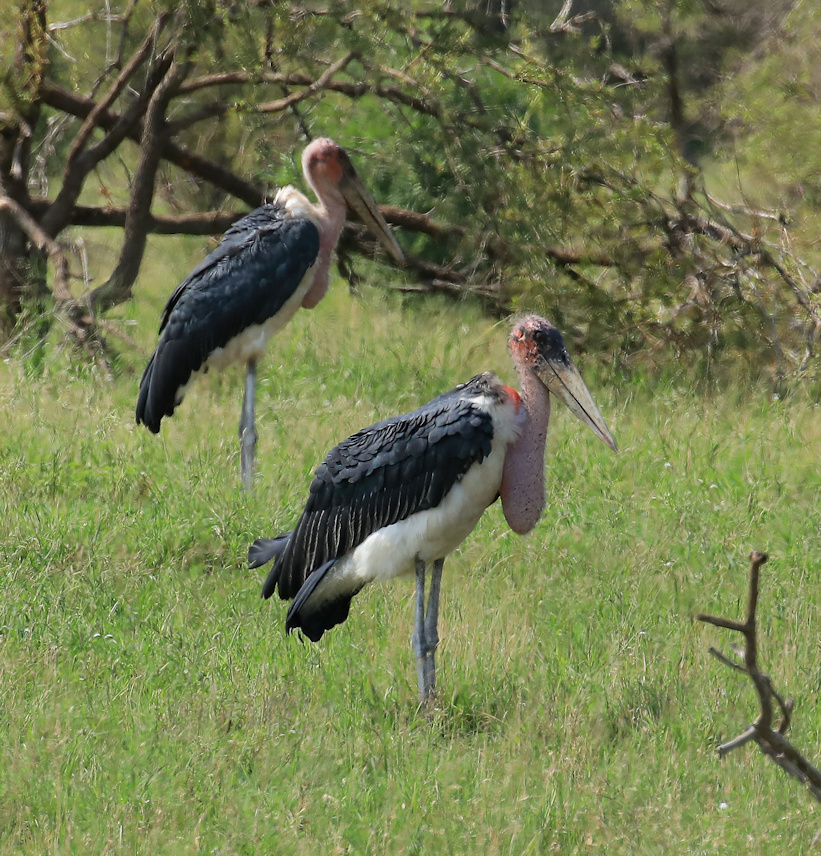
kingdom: Animalia
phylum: Chordata
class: Aves
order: Ciconiiformes
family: Ciconiidae
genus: Leptoptilos
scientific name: Leptoptilos crumenifer
